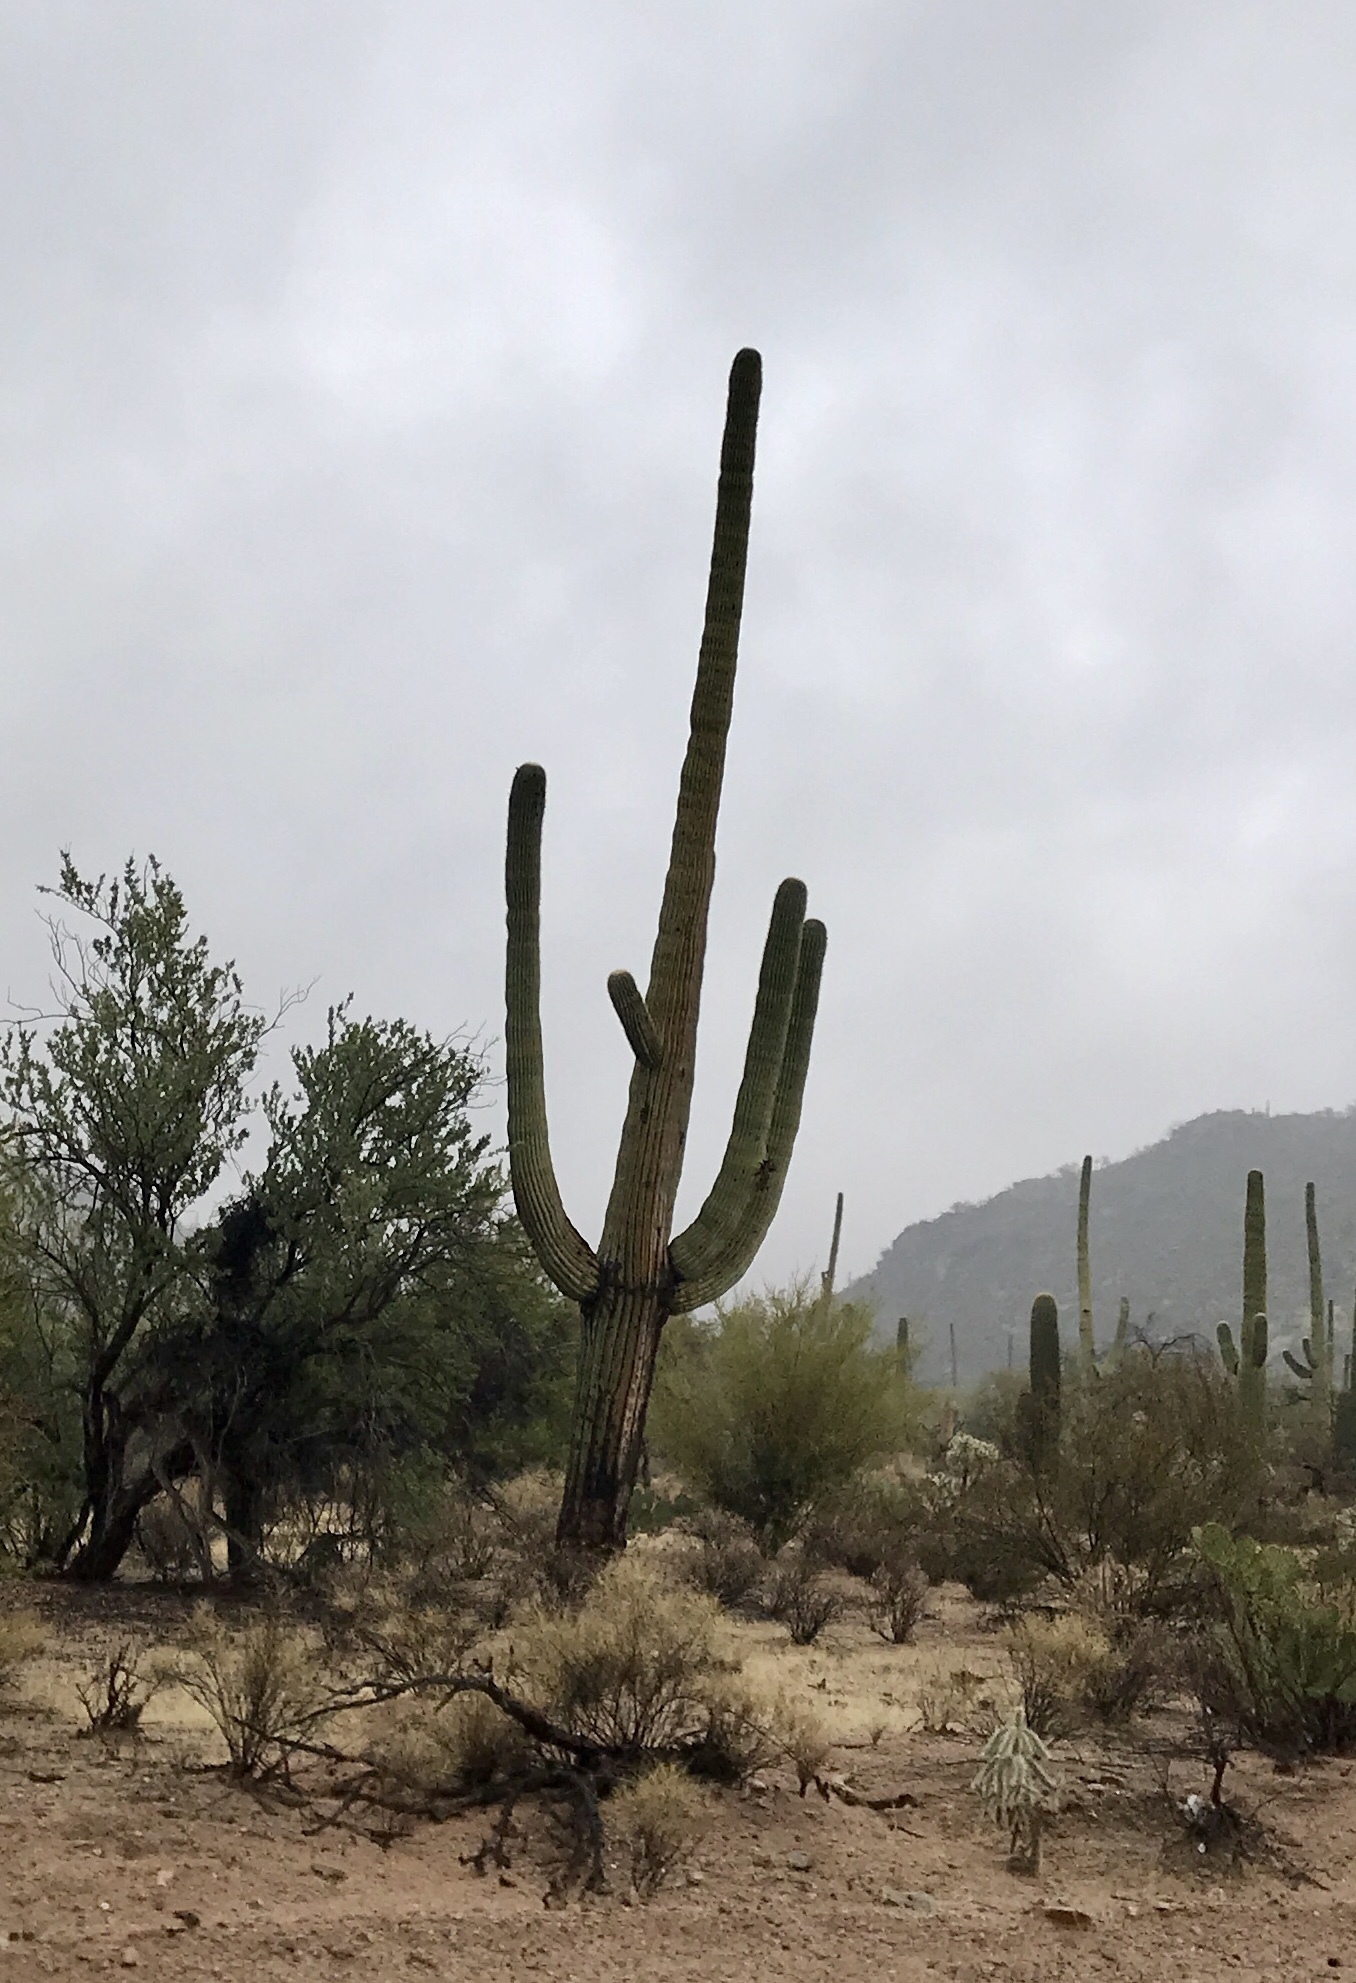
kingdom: Plantae
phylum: Tracheophyta
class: Magnoliopsida
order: Caryophyllales
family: Cactaceae
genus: Carnegiea
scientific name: Carnegiea gigantea
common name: Saguaro
